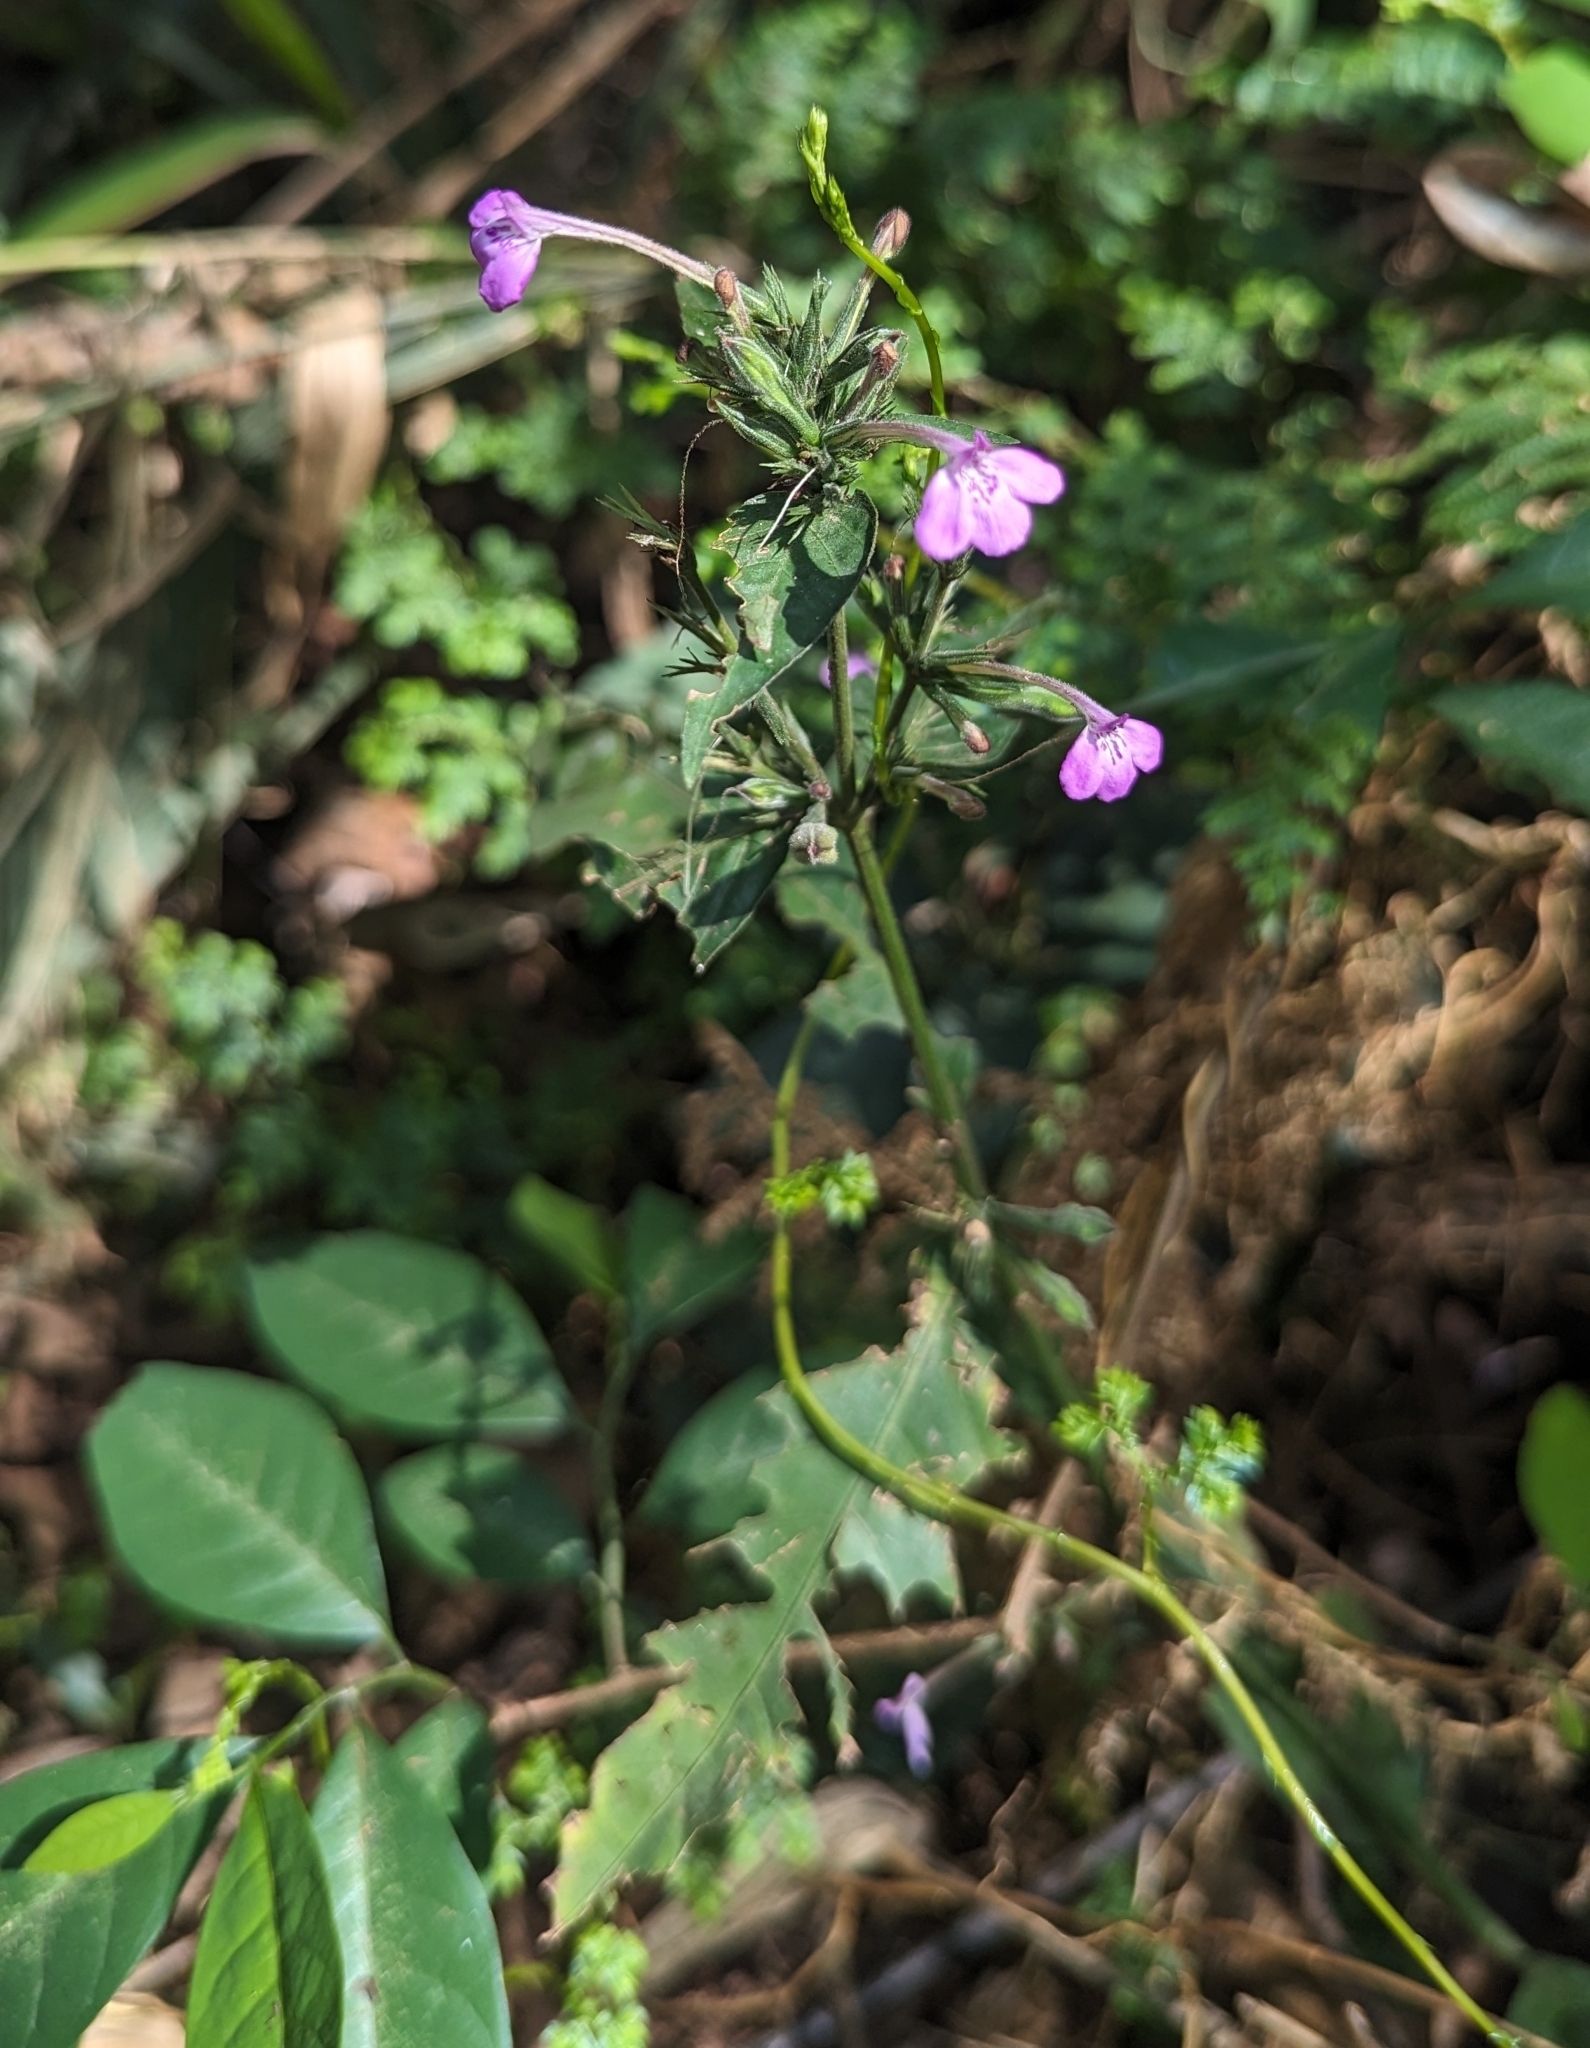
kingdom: Plantae
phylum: Tracheophyta
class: Magnoliopsida
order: Lamiales
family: Acanthaceae
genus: Rhinacanthus
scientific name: Rhinacanthus virens
